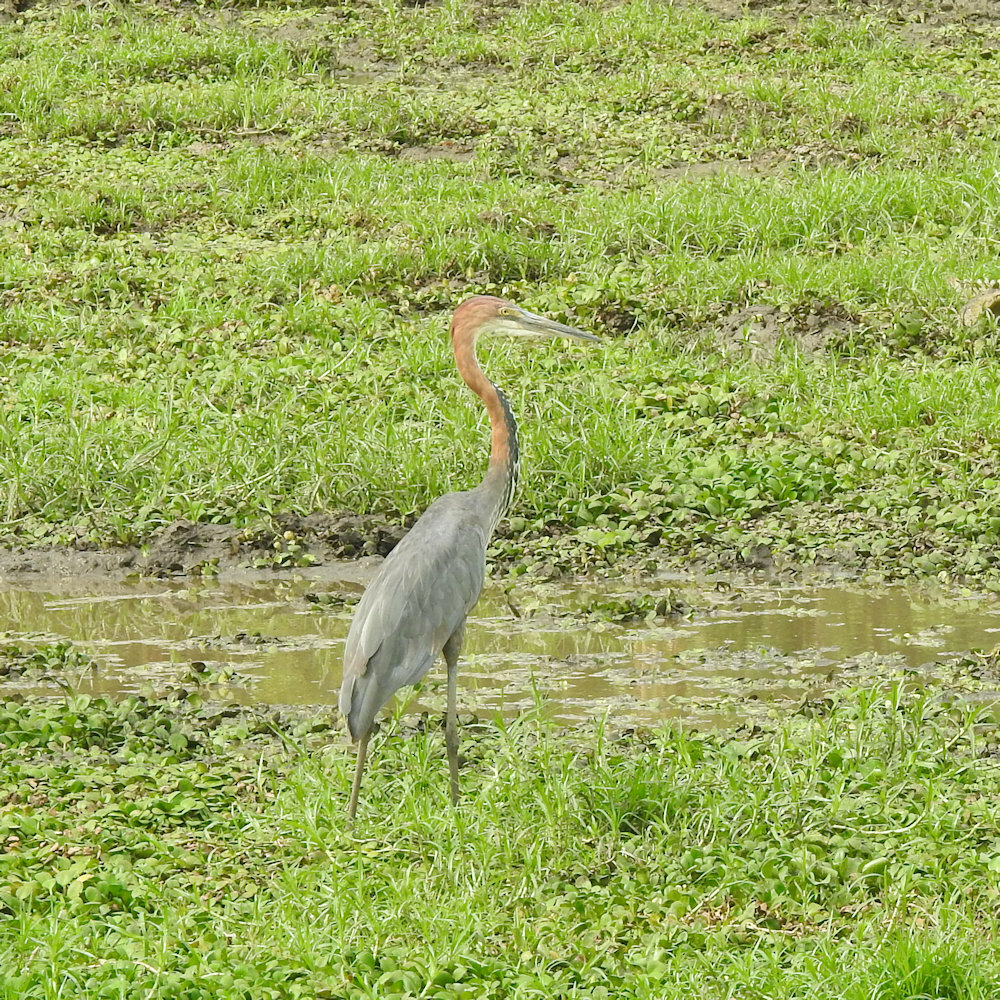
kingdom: Animalia
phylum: Chordata
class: Aves
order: Pelecaniformes
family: Ardeidae
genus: Ardea
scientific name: Ardea goliath
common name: Goliath heron
